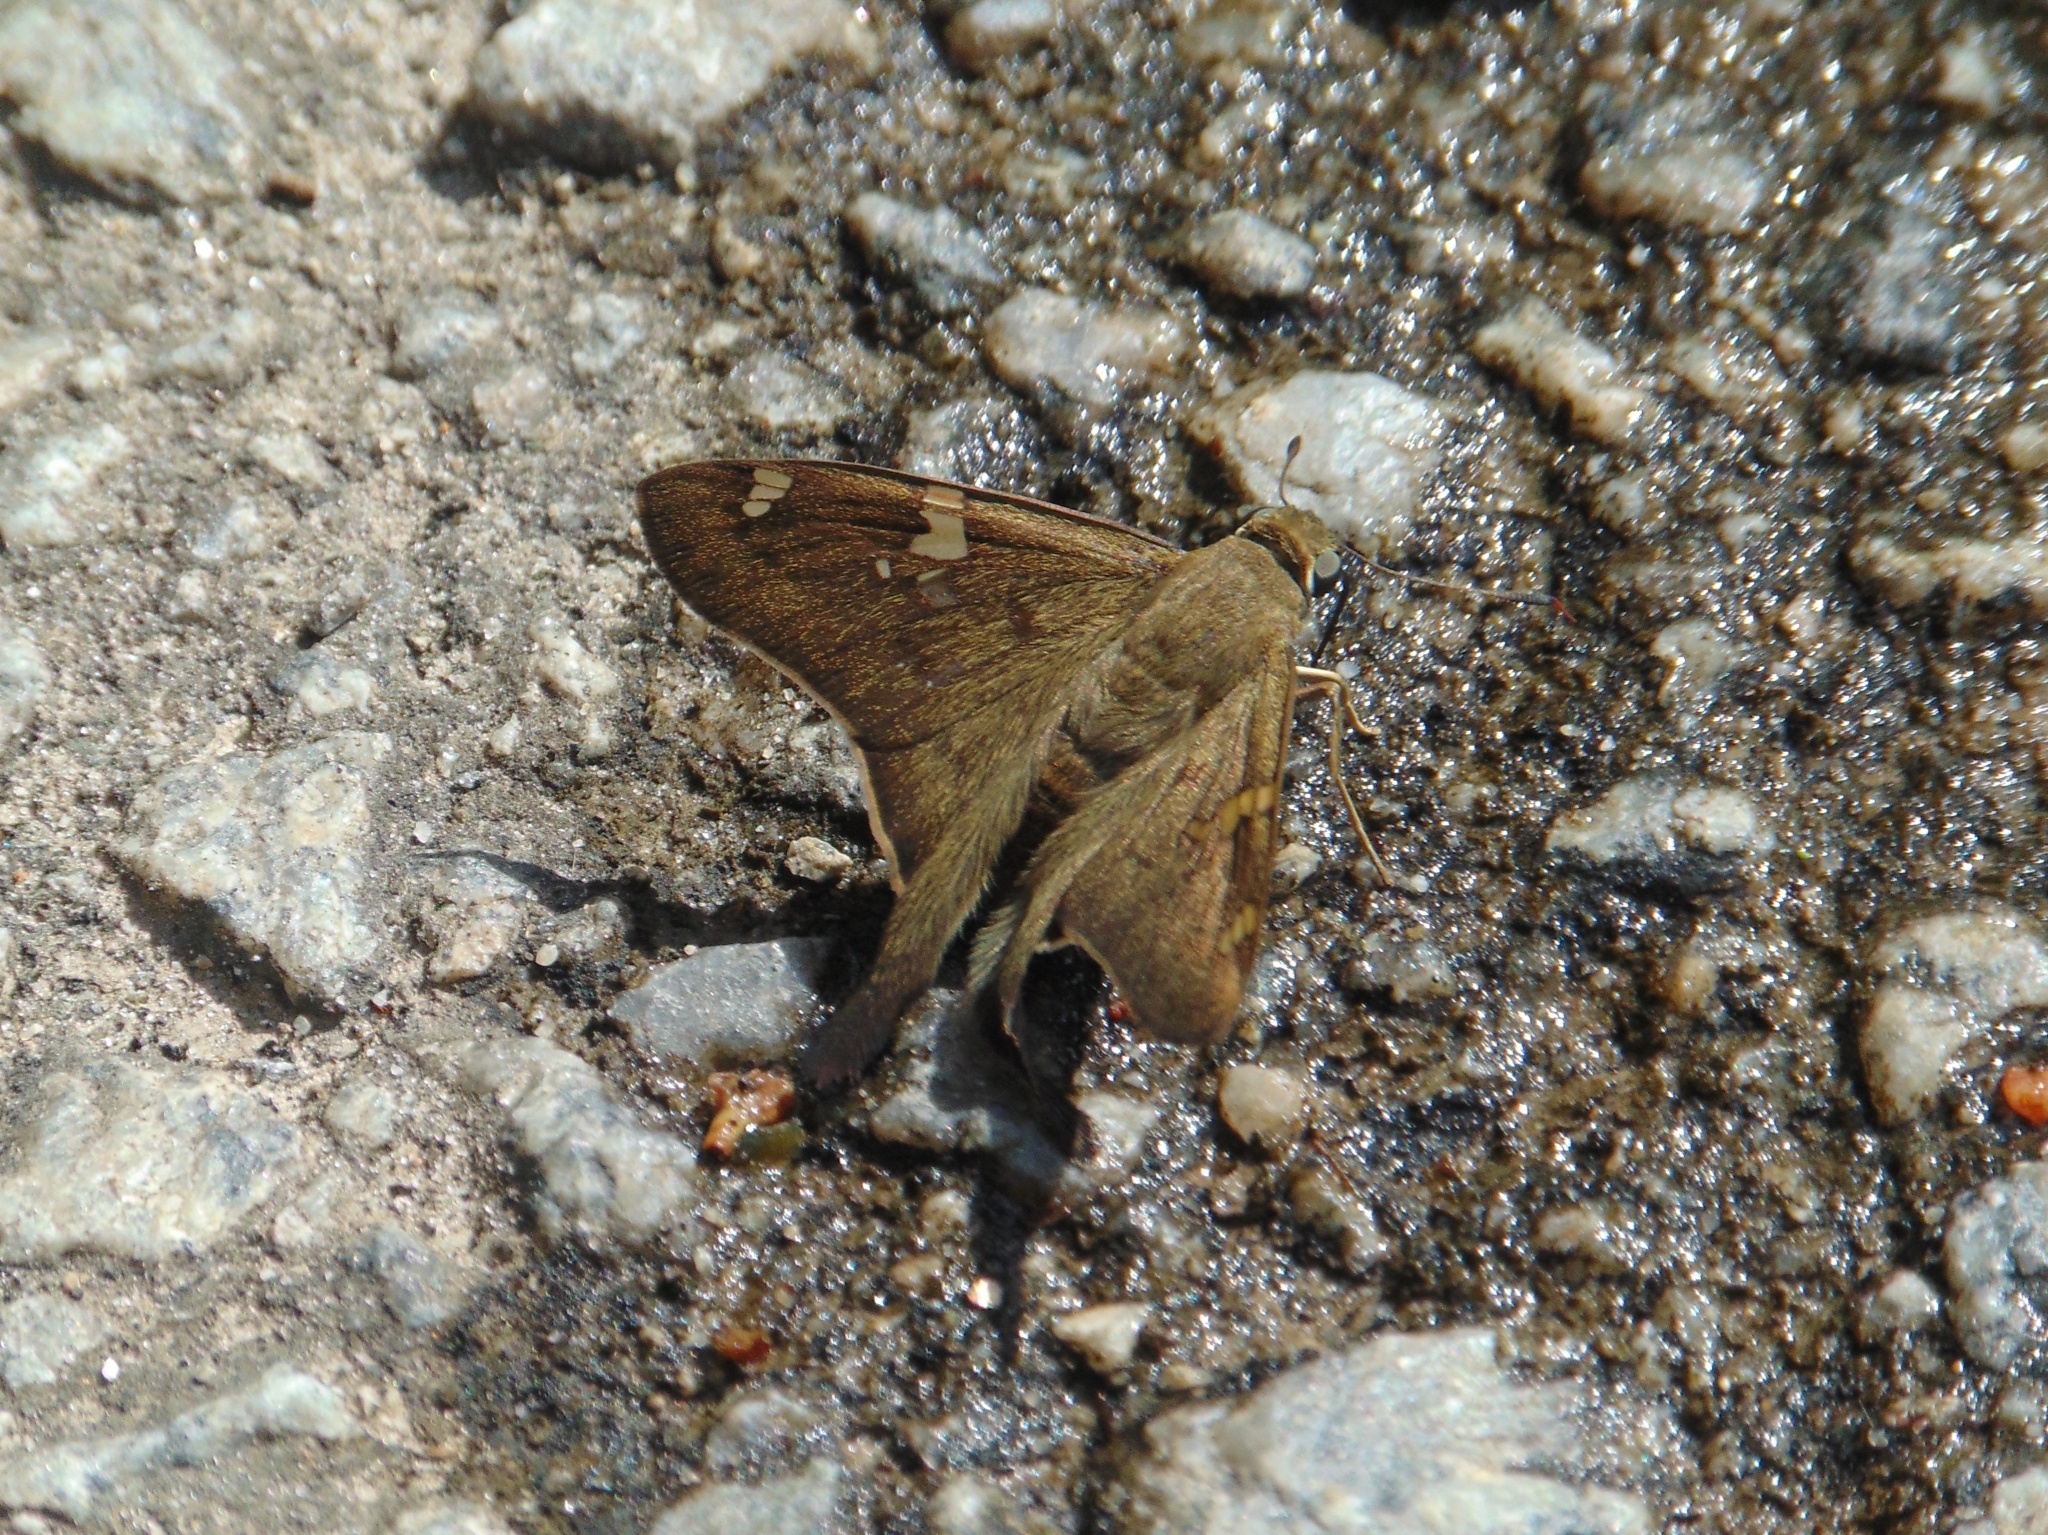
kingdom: Animalia
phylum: Arthropoda
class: Insecta
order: Lepidoptera
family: Hesperiidae
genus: Polythrix
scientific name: Polythrix octomaculata
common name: Eight-spotted longtail
